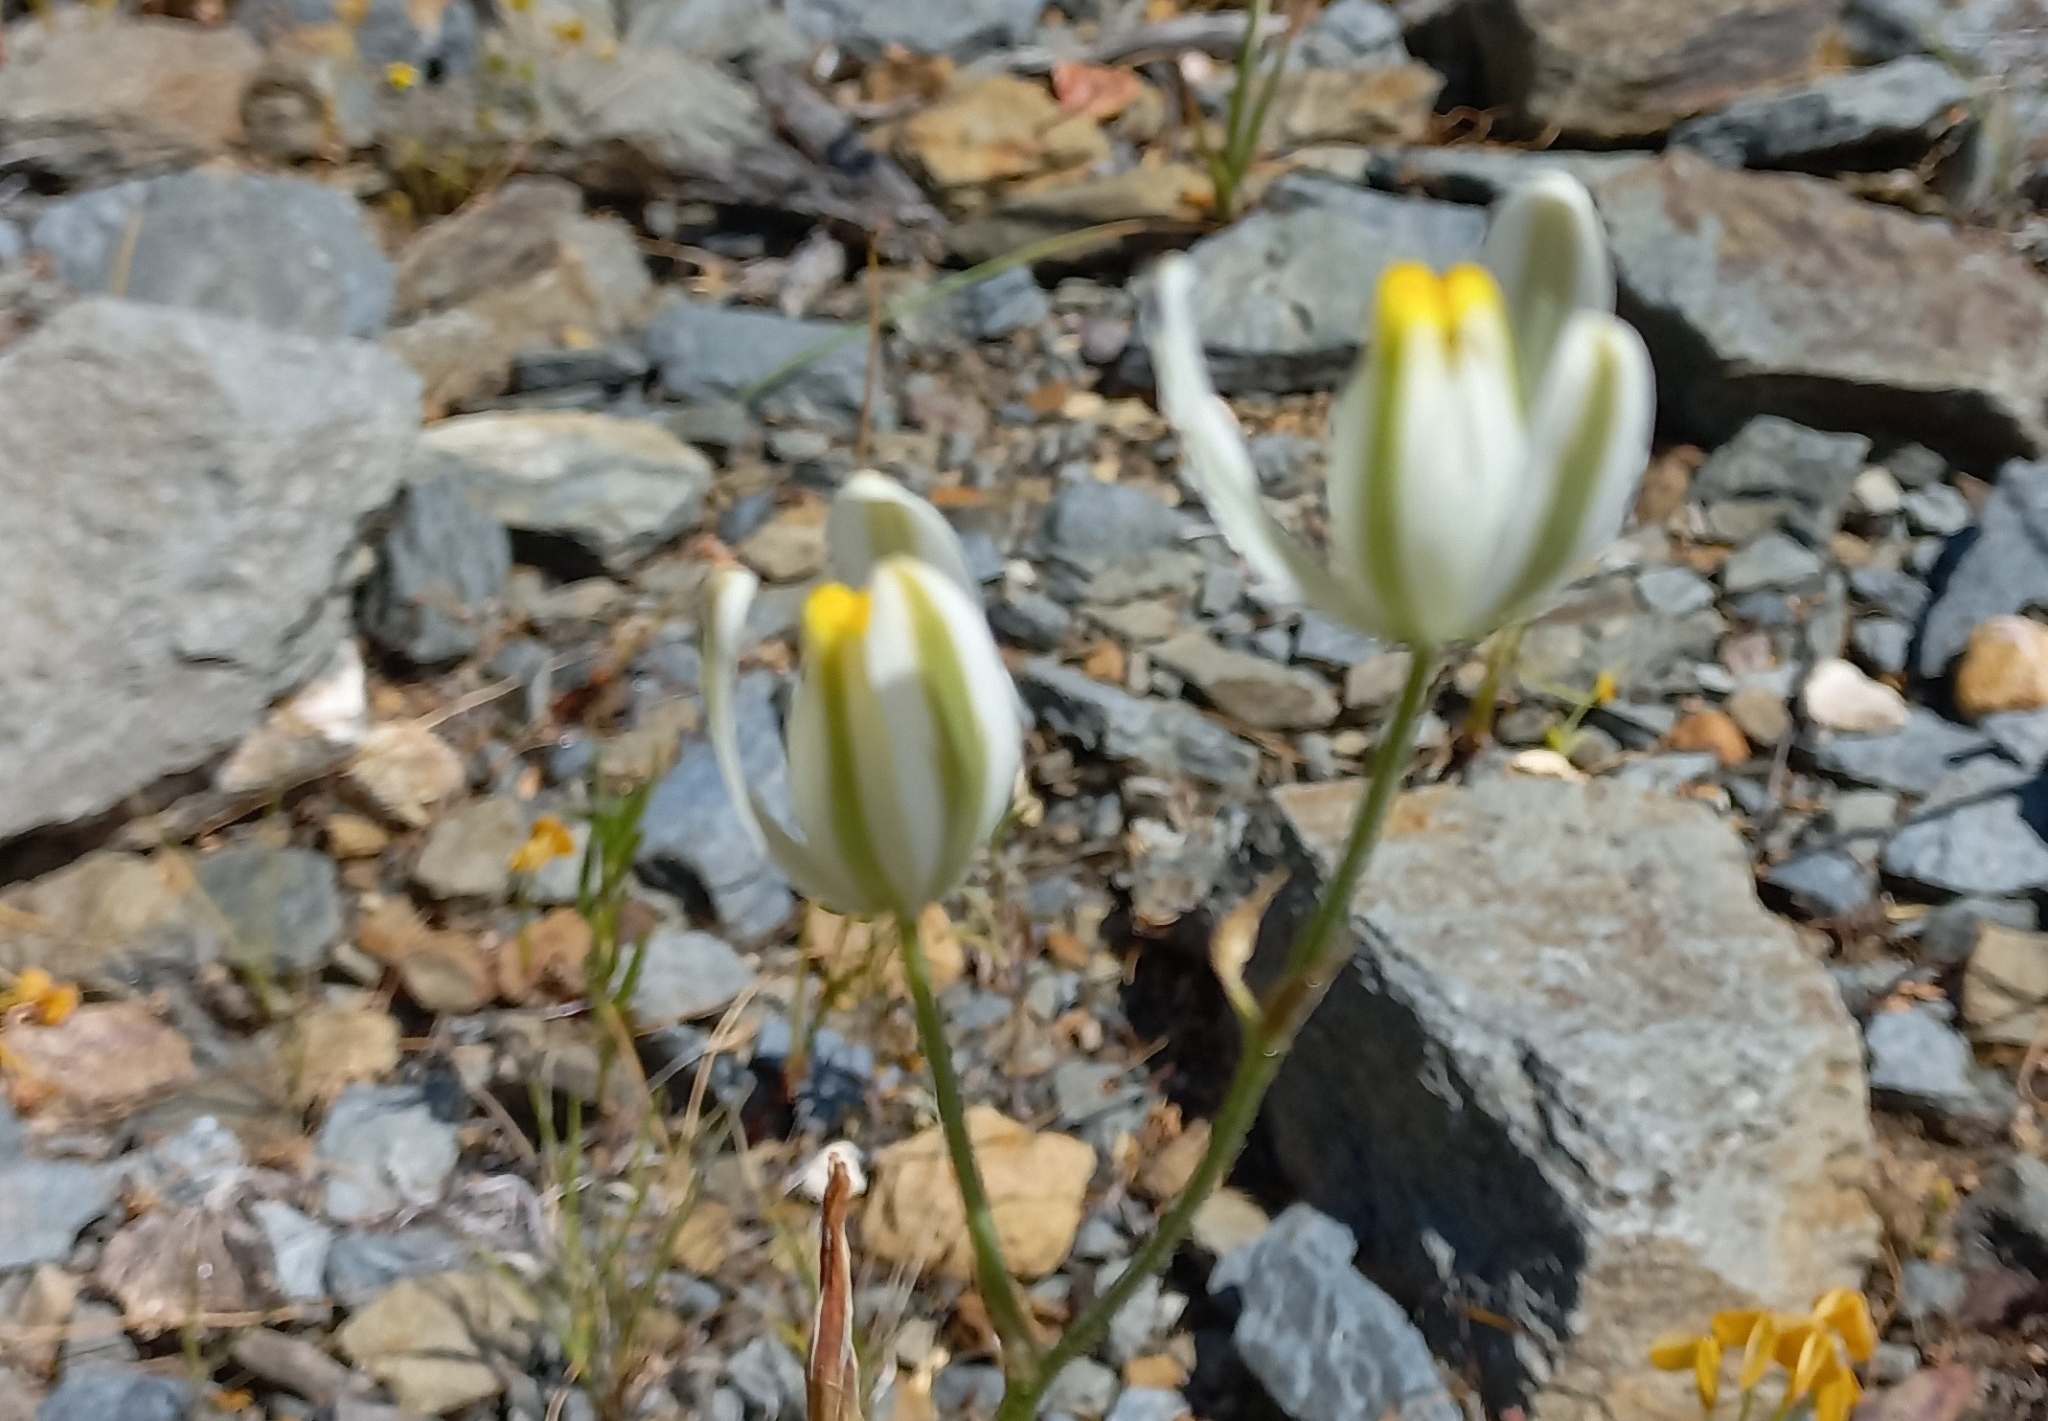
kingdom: Plantae
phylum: Tracheophyta
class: Liliopsida
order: Asparagales
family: Asparagaceae
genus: Albuca
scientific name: Albuca longipes
